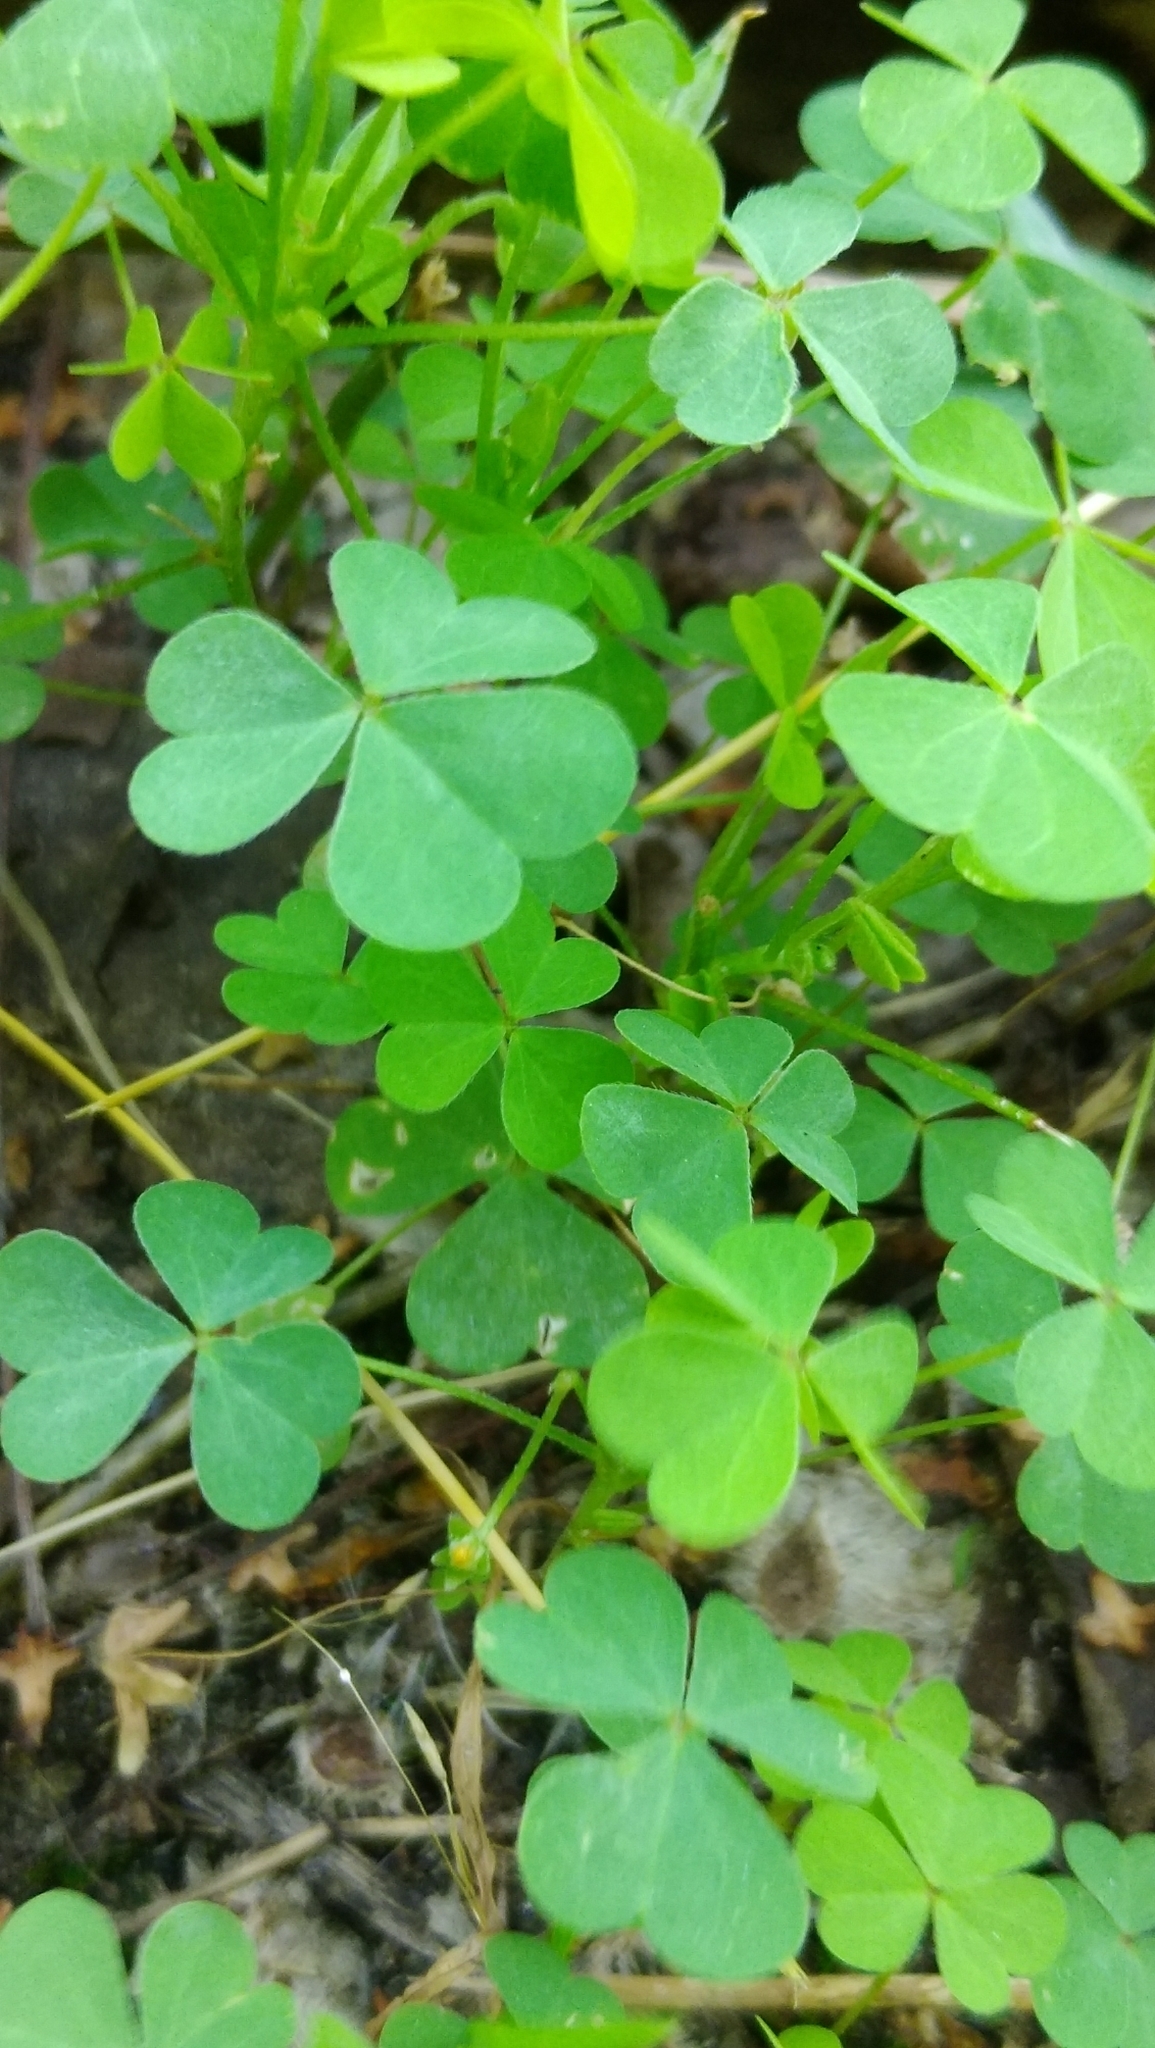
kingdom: Plantae
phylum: Tracheophyta
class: Magnoliopsida
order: Oxalidales
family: Oxalidaceae
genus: Oxalis
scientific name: Oxalis stricta
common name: Upright yellow-sorrel
